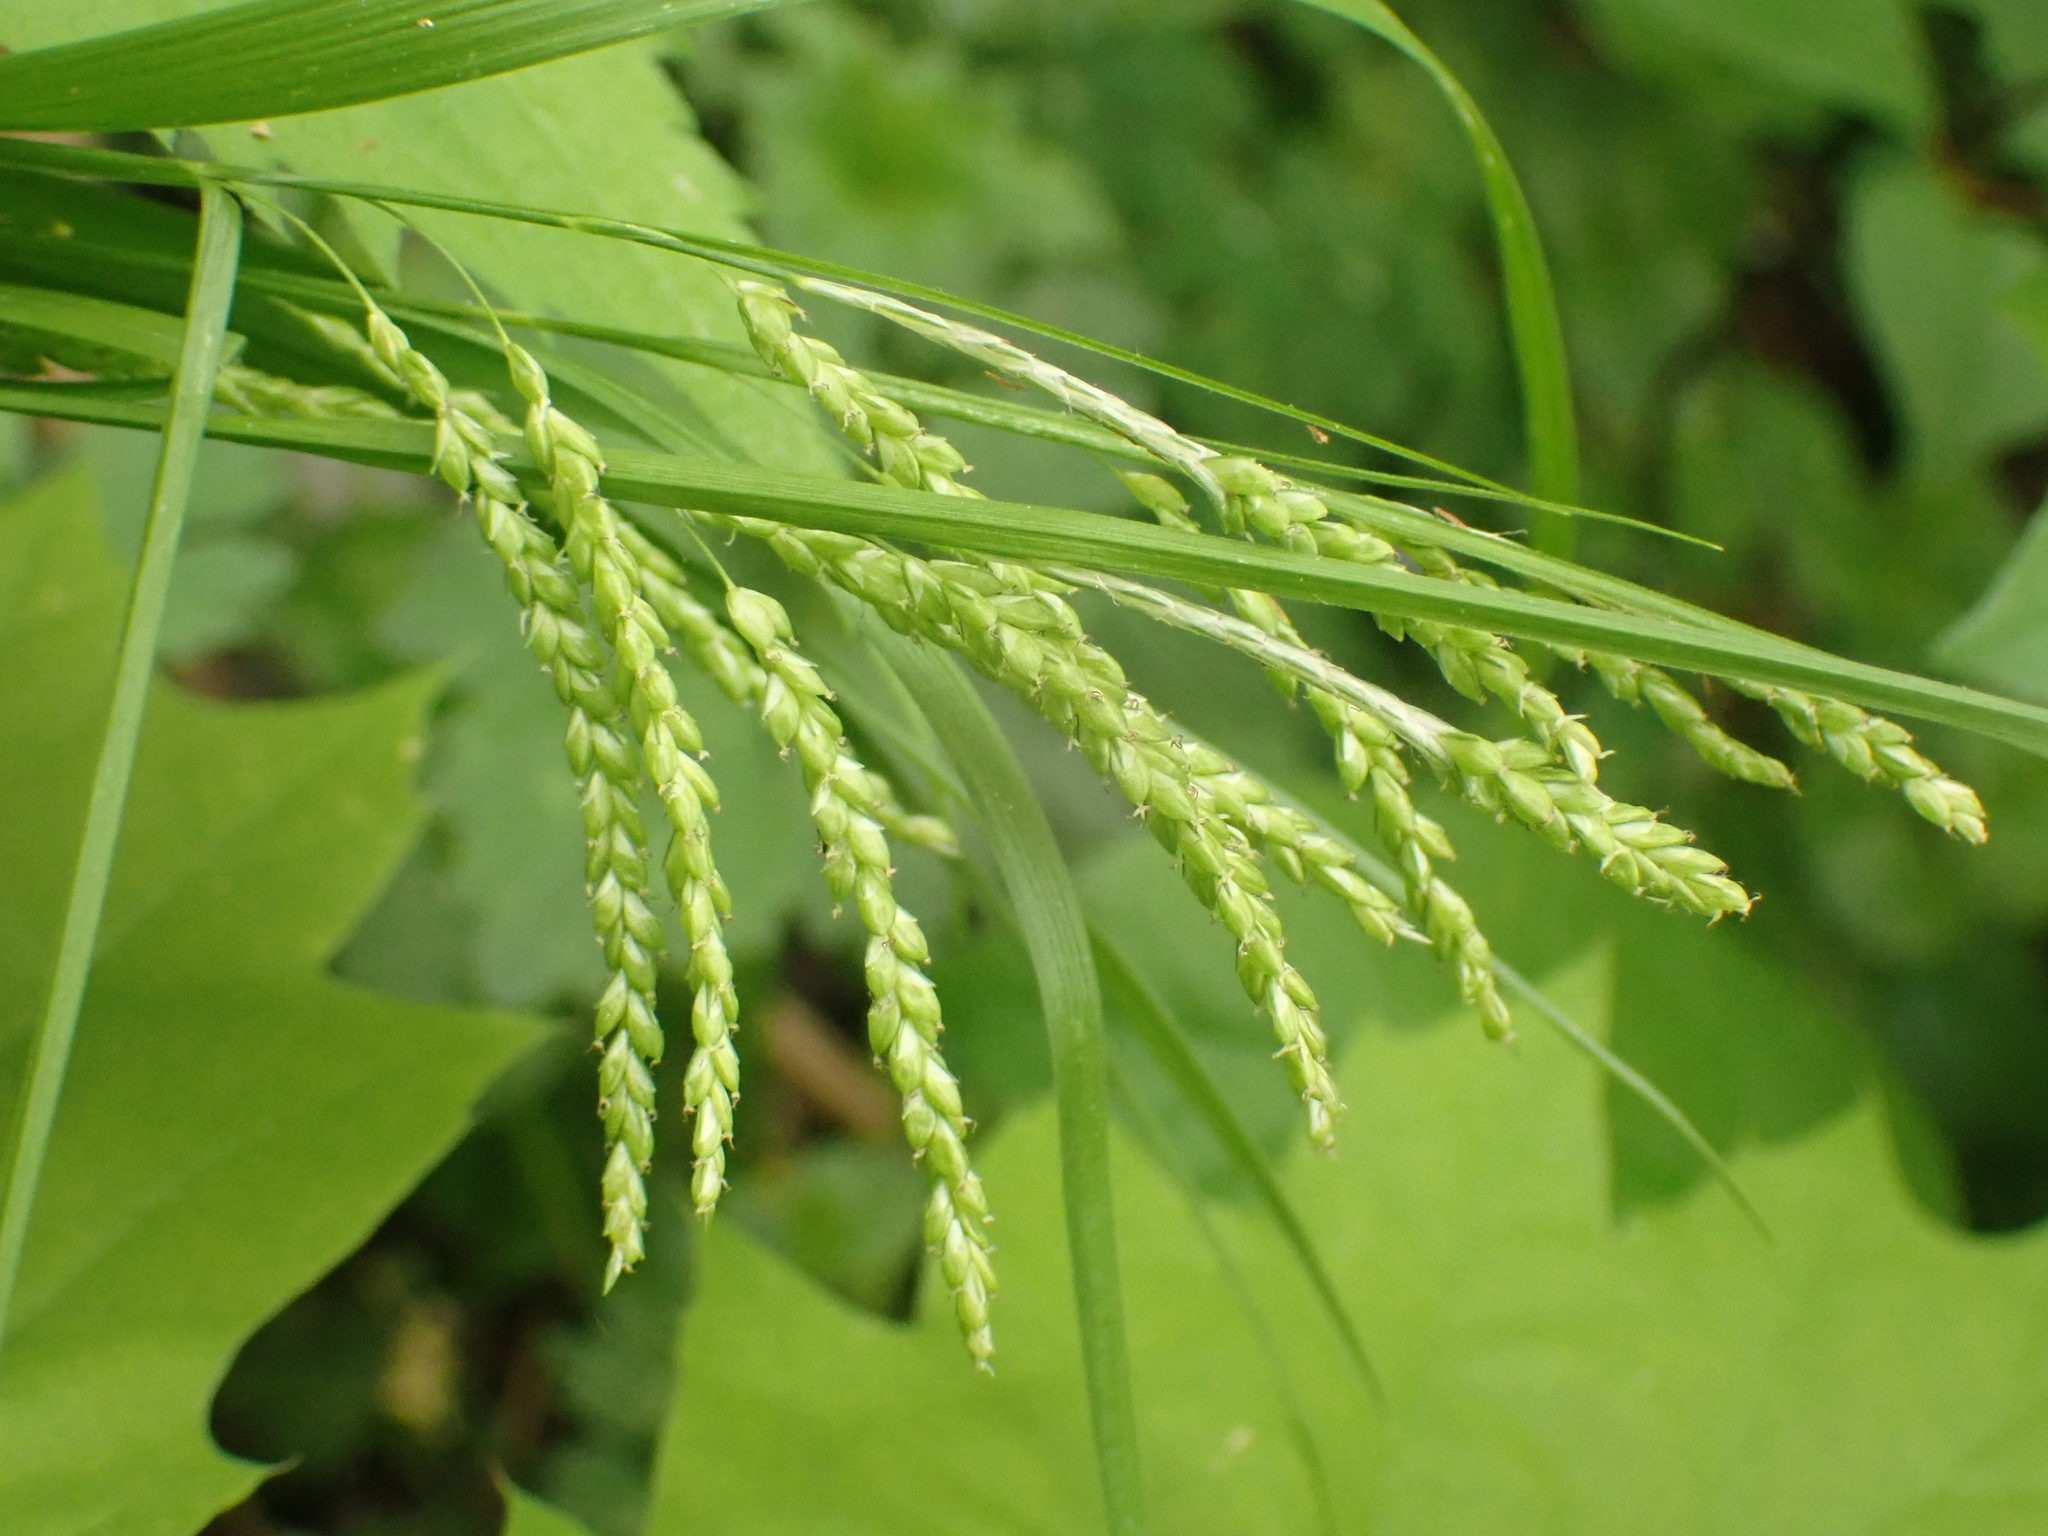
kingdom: Plantae
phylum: Tracheophyta
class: Liliopsida
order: Poales
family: Cyperaceae
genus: Carex
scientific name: Carex gracillima
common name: Graceful sedge
